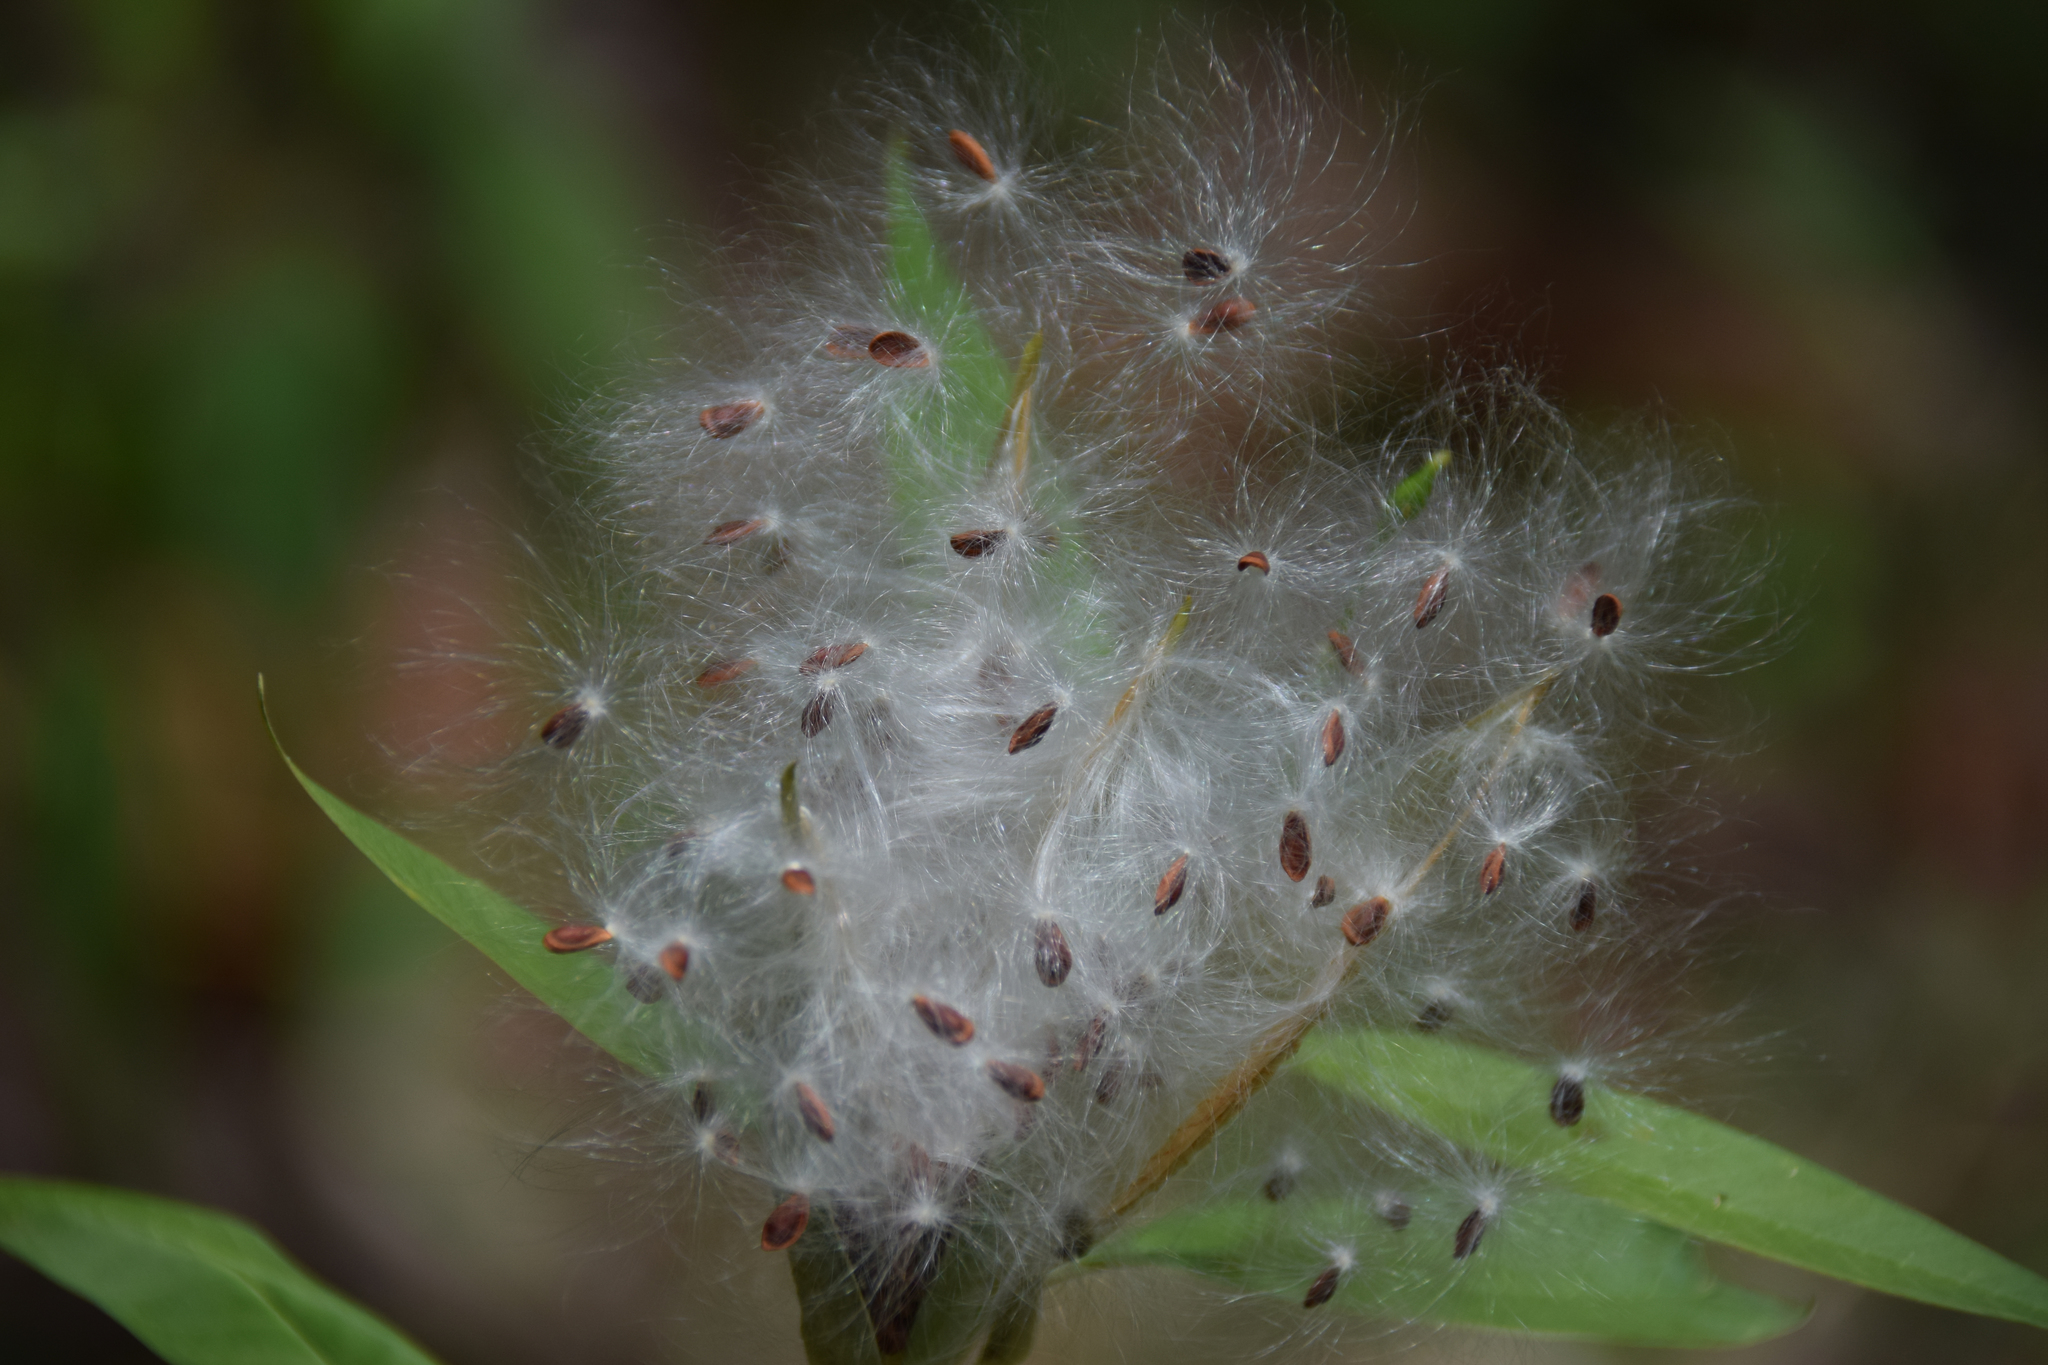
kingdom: Plantae
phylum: Tracheophyta
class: Magnoliopsida
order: Gentianales
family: Apocynaceae
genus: Asclepias
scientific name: Asclepias curassavica
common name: Bloodflower
